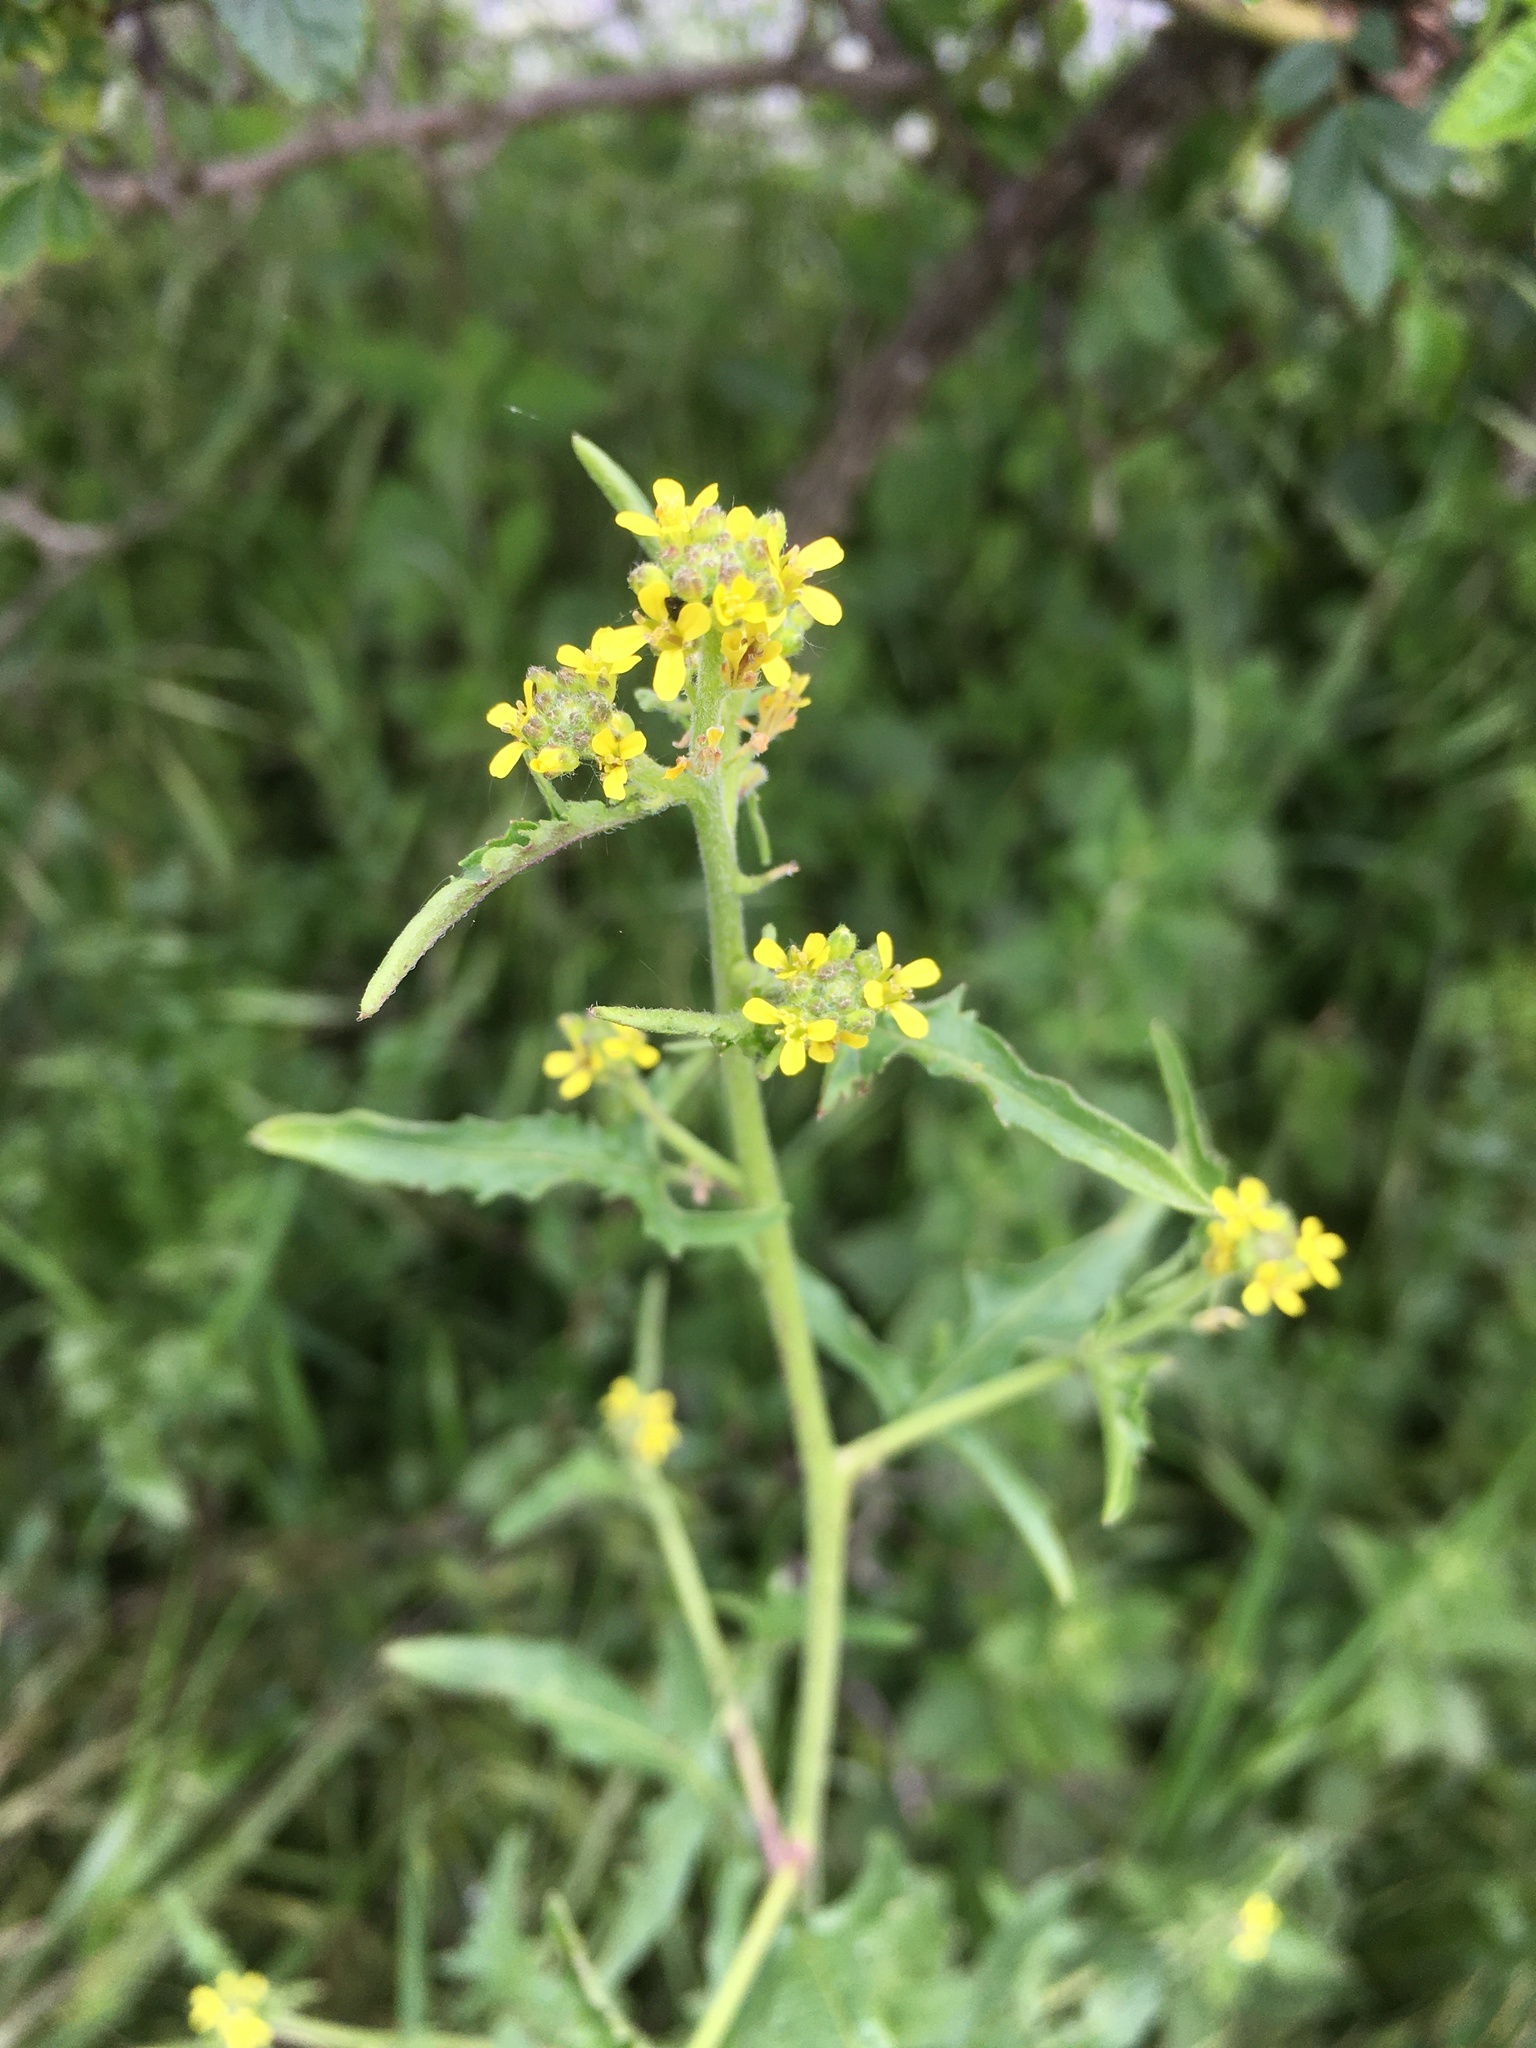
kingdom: Plantae
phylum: Tracheophyta
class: Magnoliopsida
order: Brassicales
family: Brassicaceae
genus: Sisymbrium
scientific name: Sisymbrium officinale
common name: Hedge mustard
